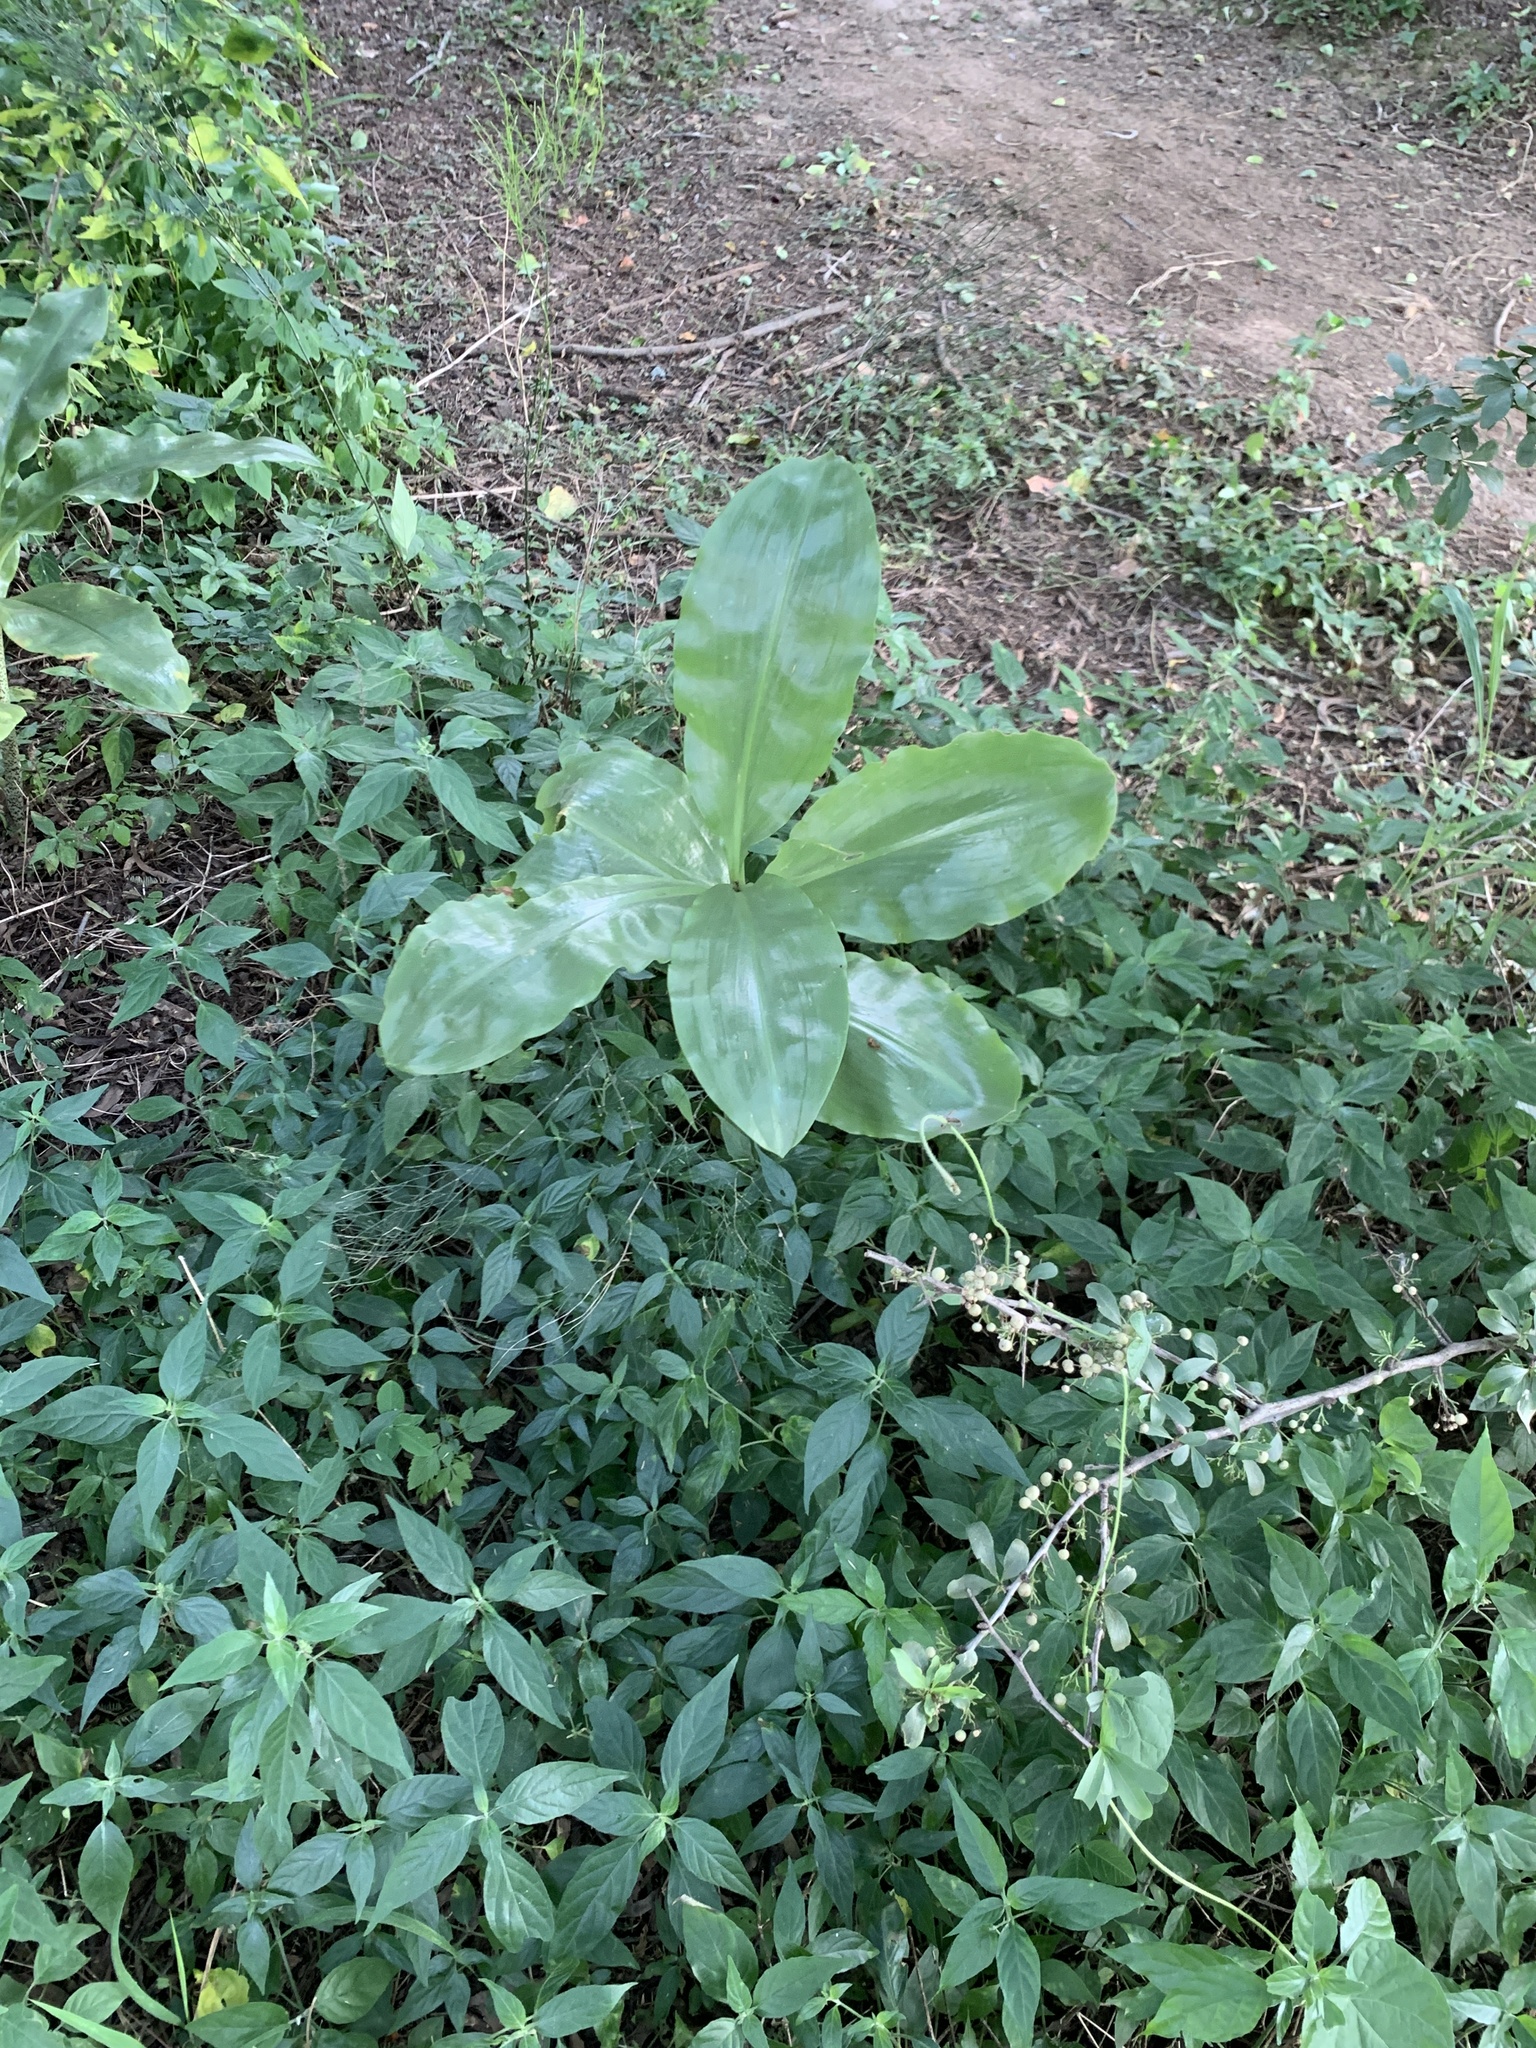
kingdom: Plantae
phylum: Tracheophyta
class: Liliopsida
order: Asparagales
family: Amaryllidaceae
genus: Scadoxus
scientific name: Scadoxus puniceus
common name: Royal-paintbrush
